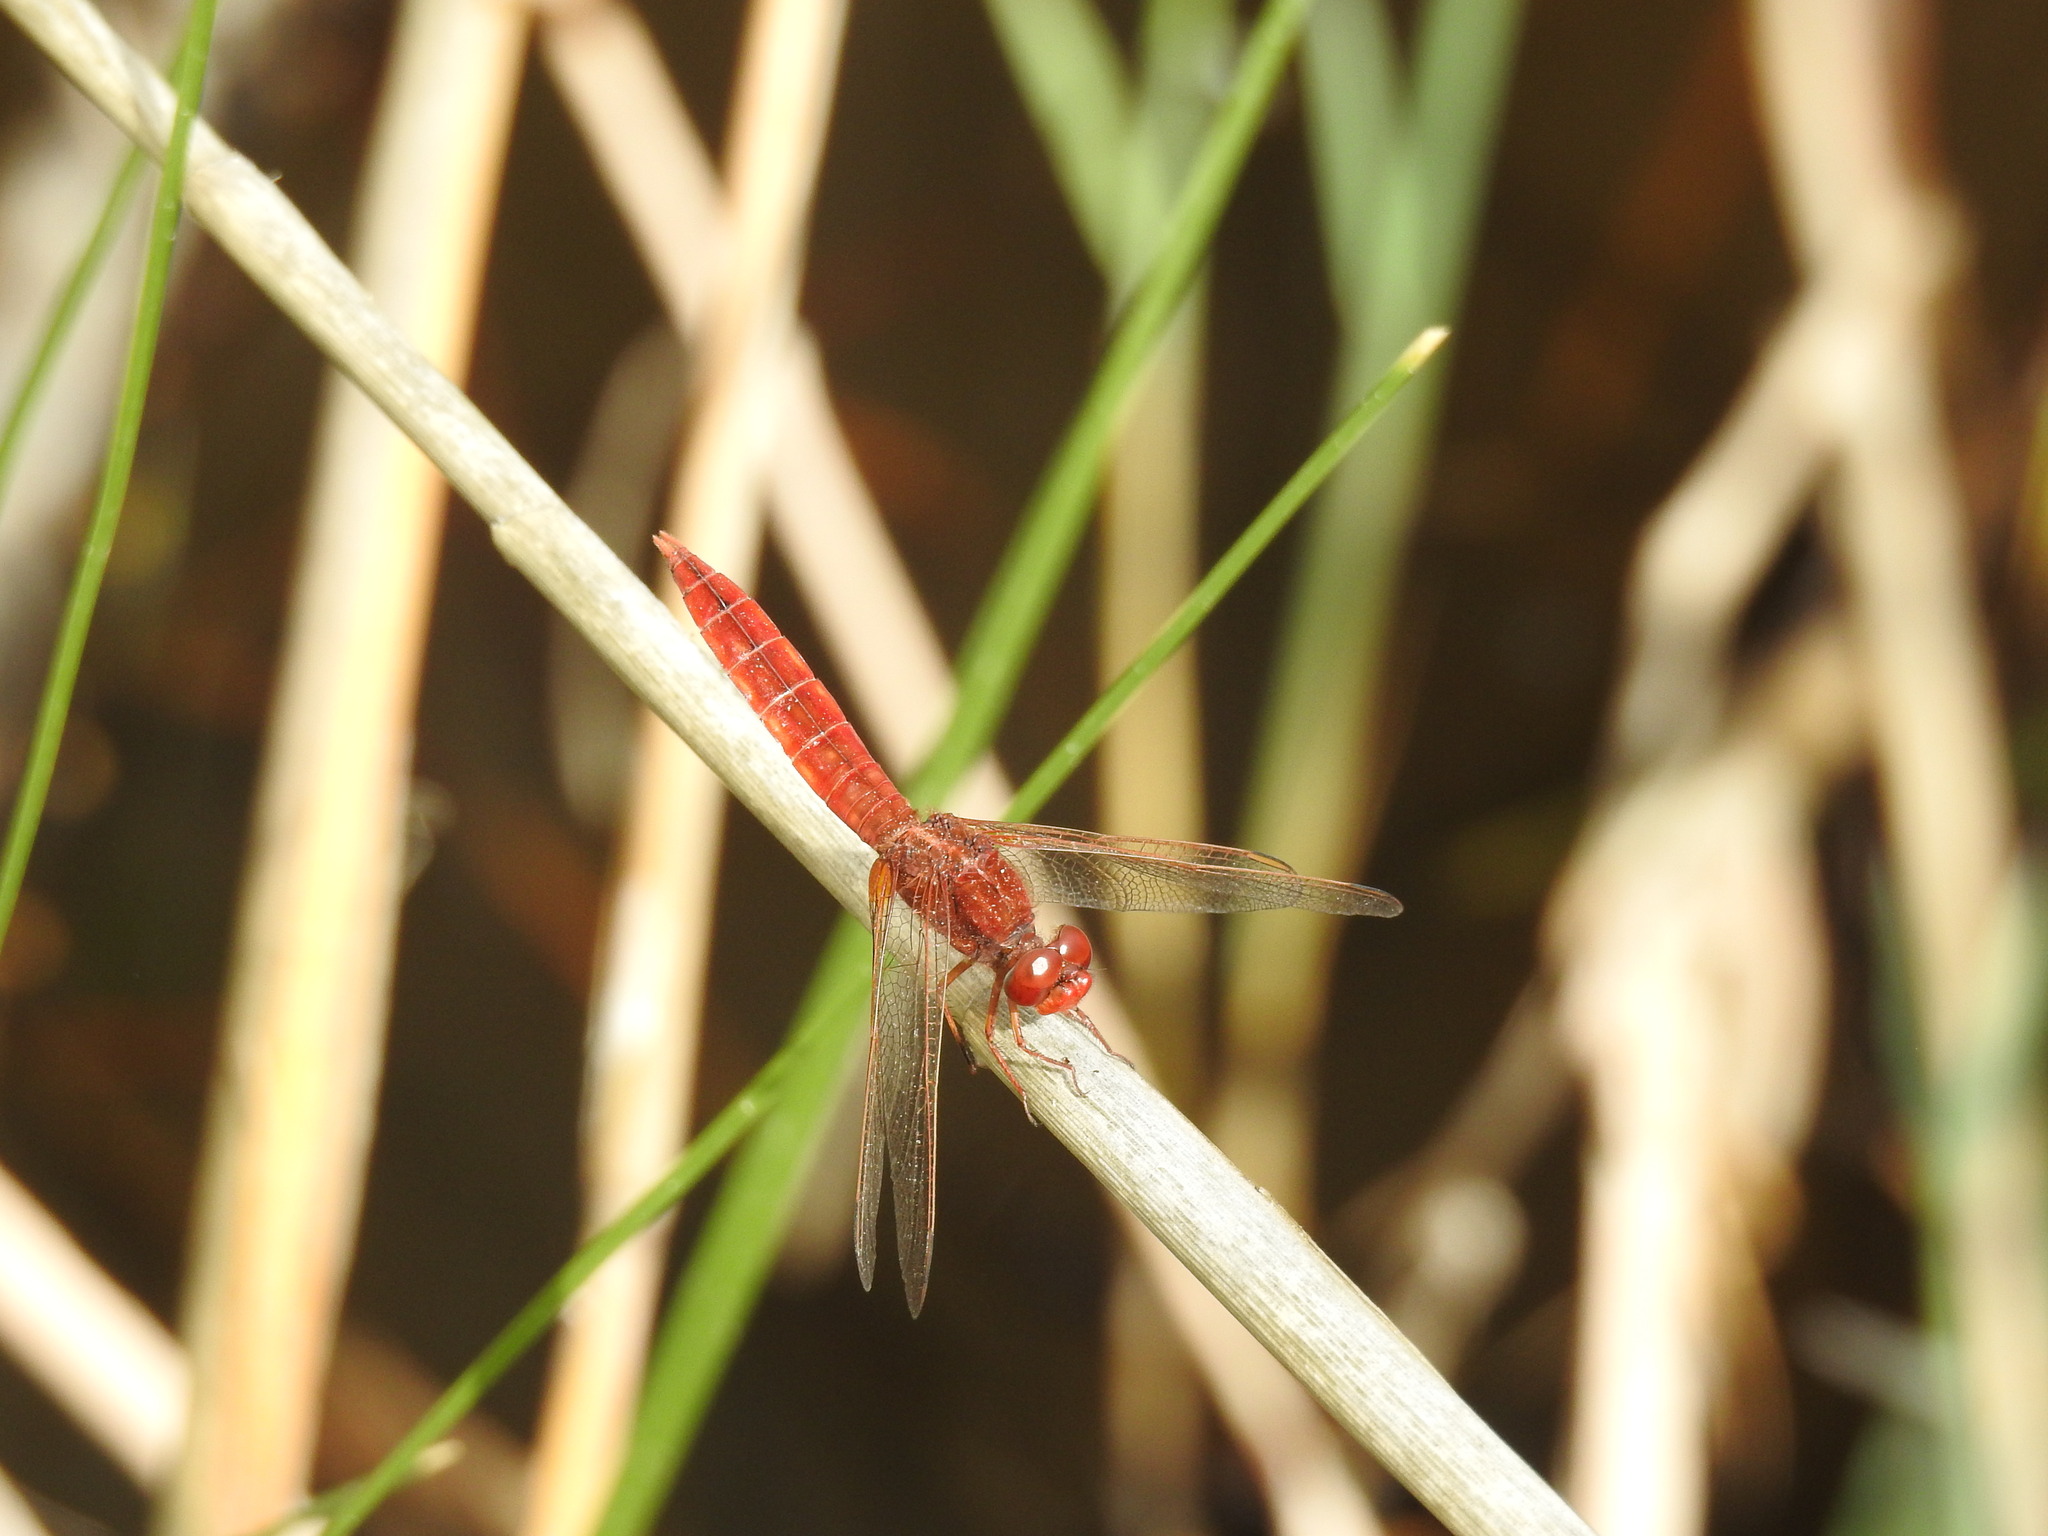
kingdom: Animalia
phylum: Arthropoda
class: Insecta
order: Odonata
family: Libellulidae
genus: Crocothemis
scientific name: Crocothemis erythraea
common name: Scarlet dragonfly
